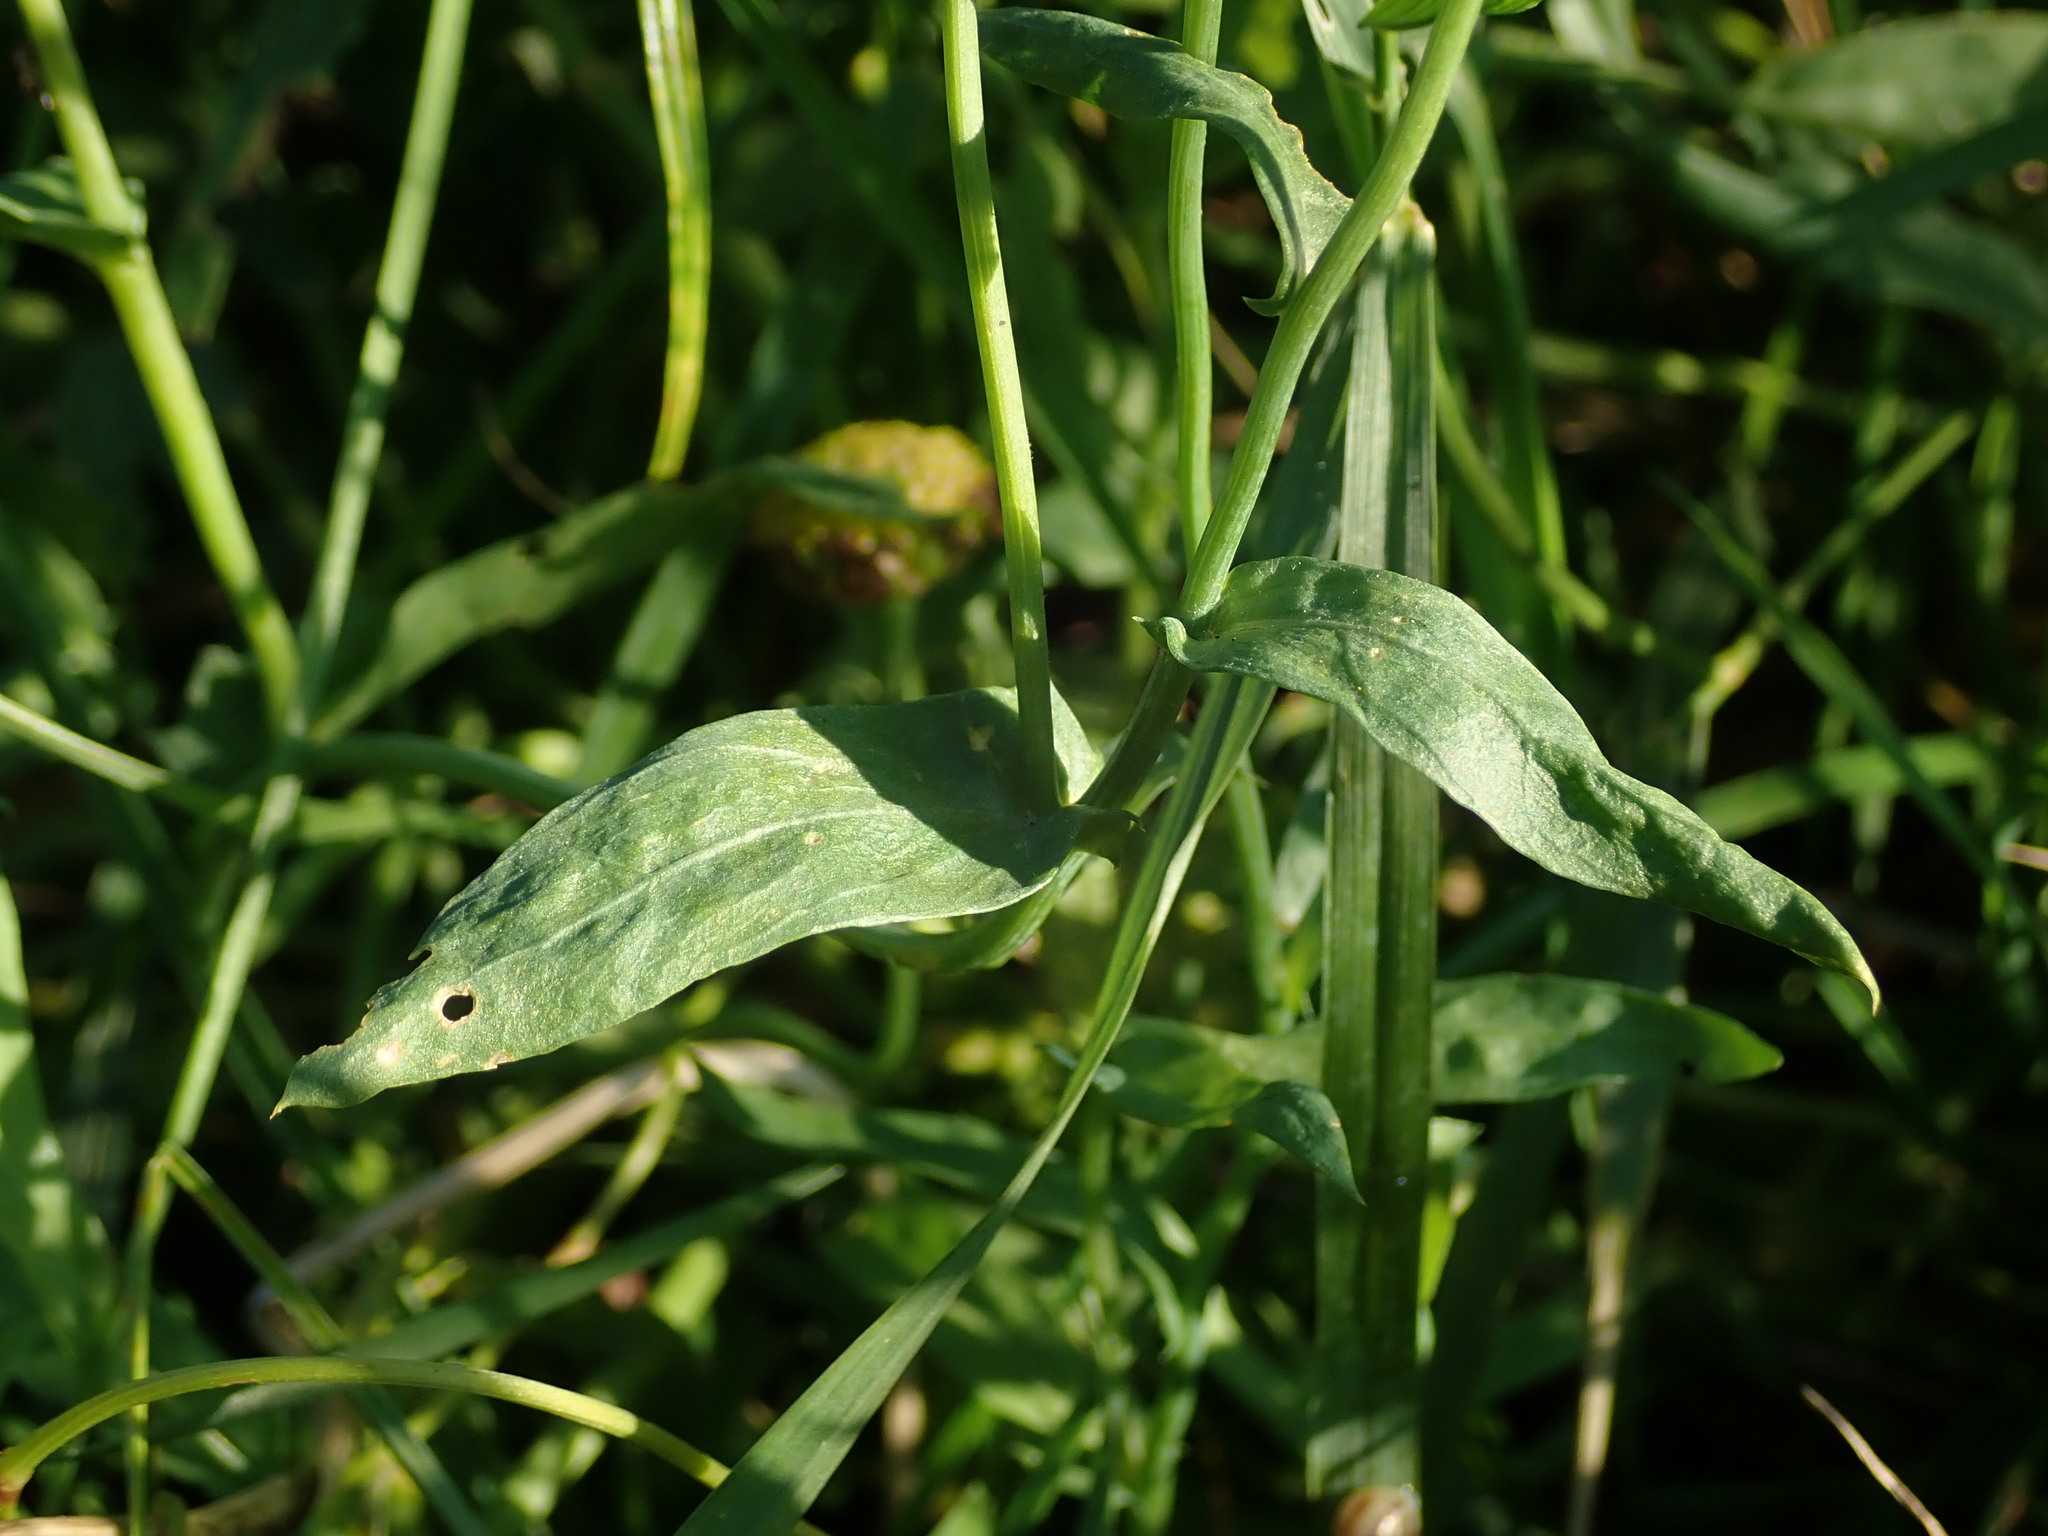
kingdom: Plantae
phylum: Tracheophyta
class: Magnoliopsida
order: Asterales
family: Asteraceae
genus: Glebionis
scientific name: Glebionis segetum
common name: Corndaisy
